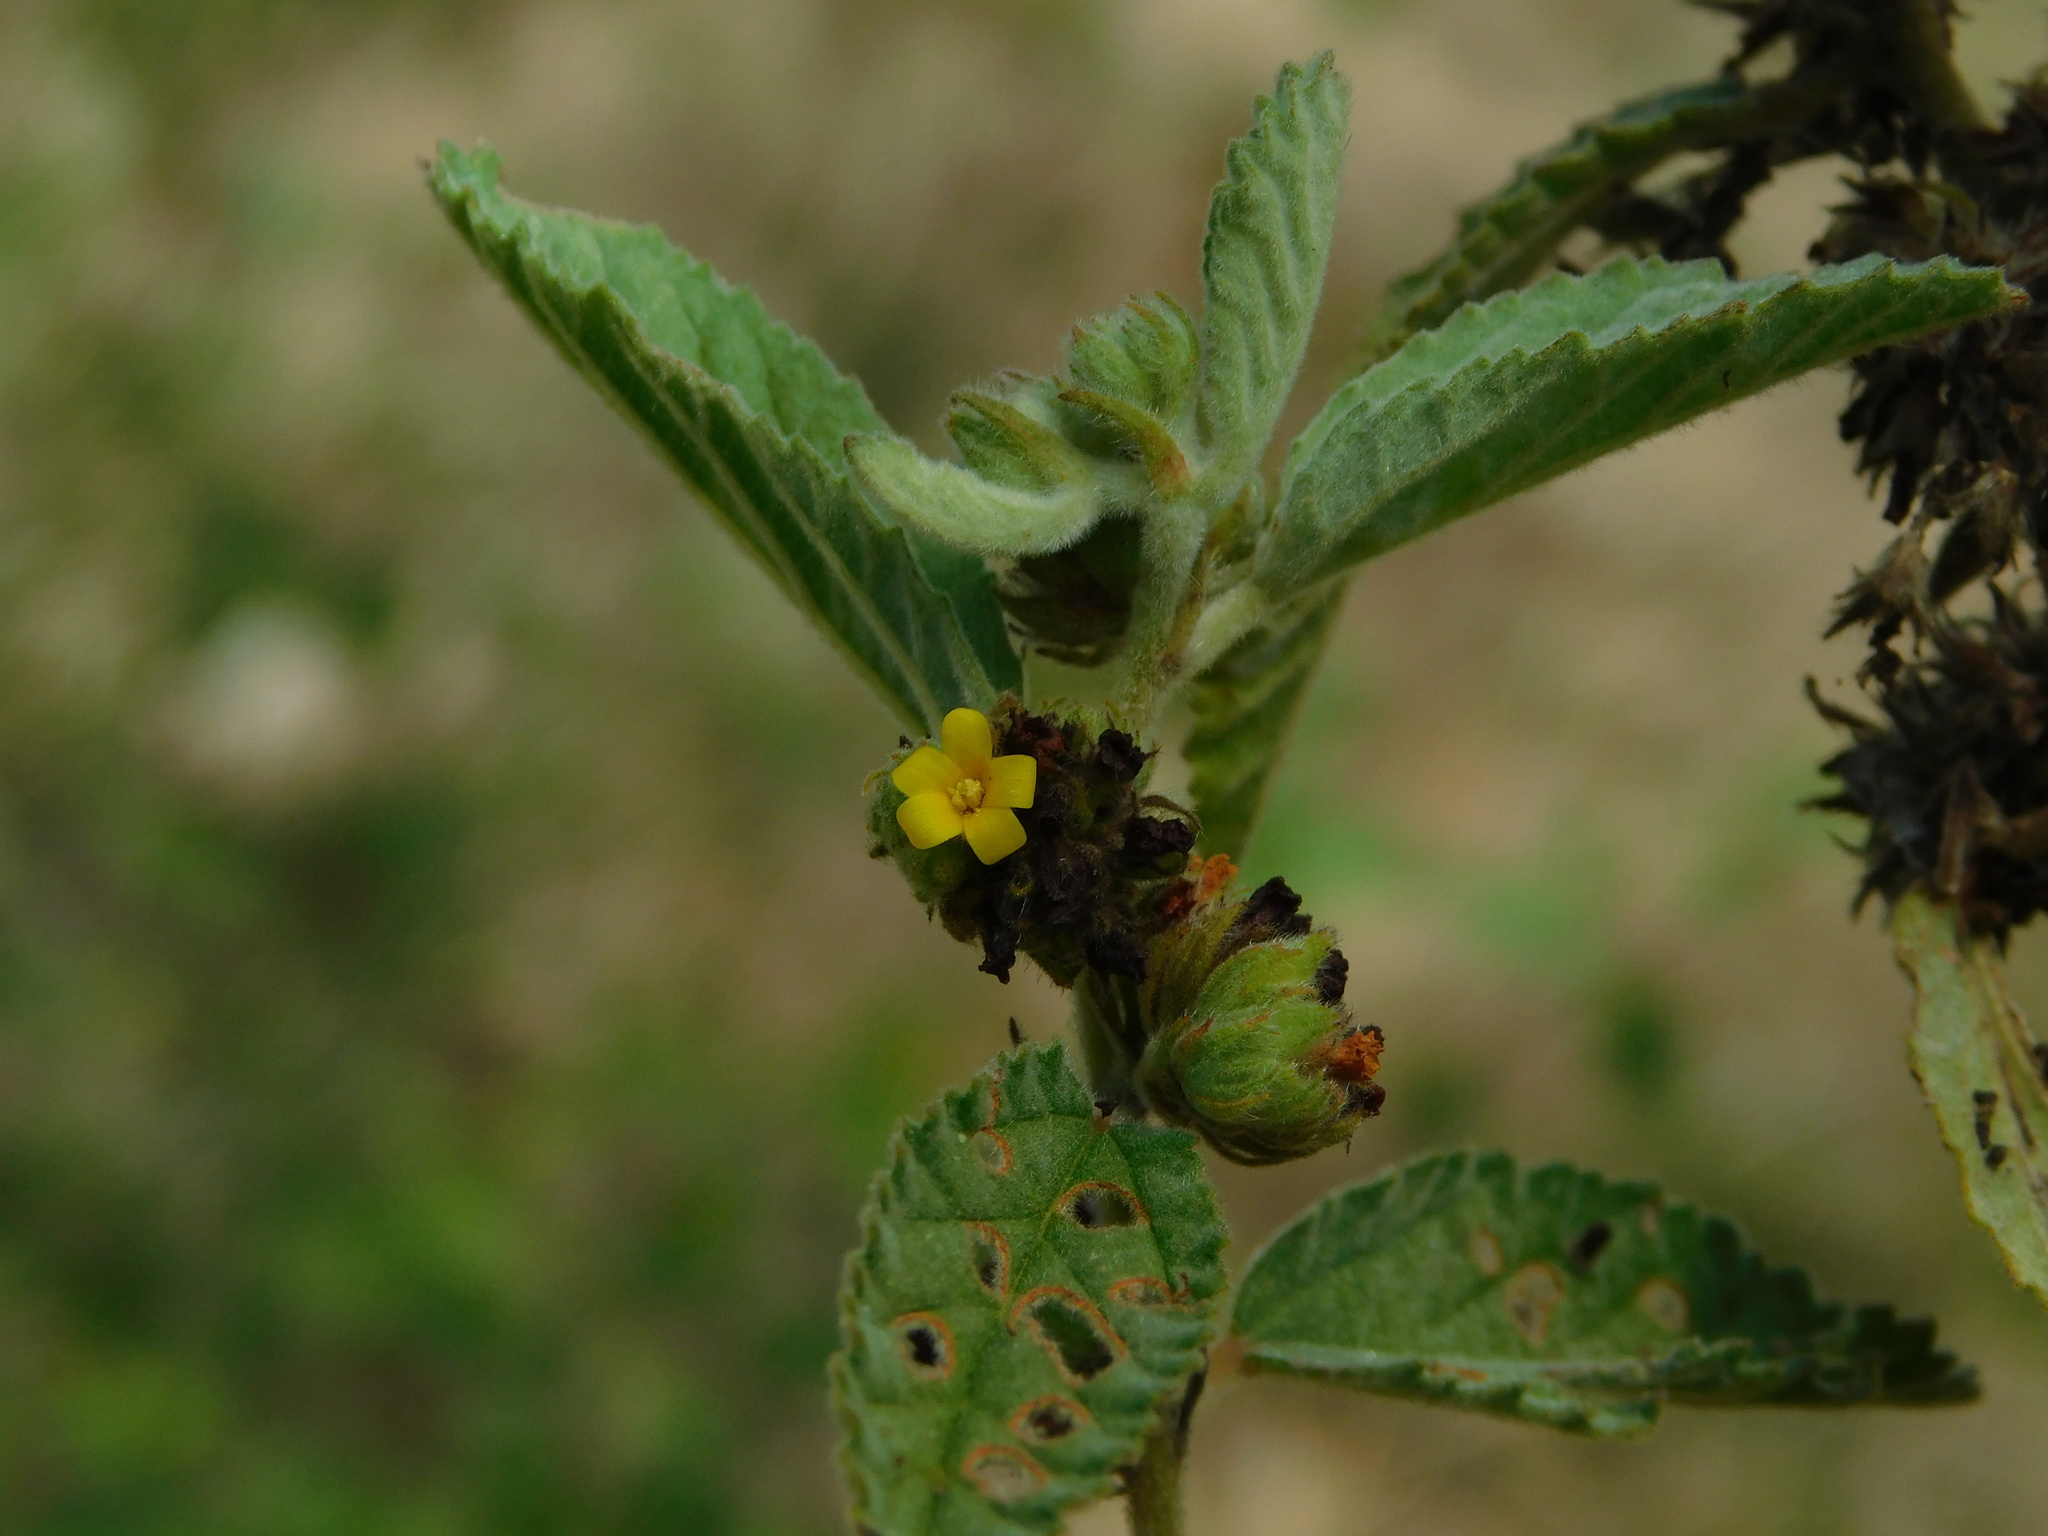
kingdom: Plantae
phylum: Tracheophyta
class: Magnoliopsida
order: Malvales
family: Malvaceae
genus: Waltheria
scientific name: Waltheria indica
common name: Leather-coat
